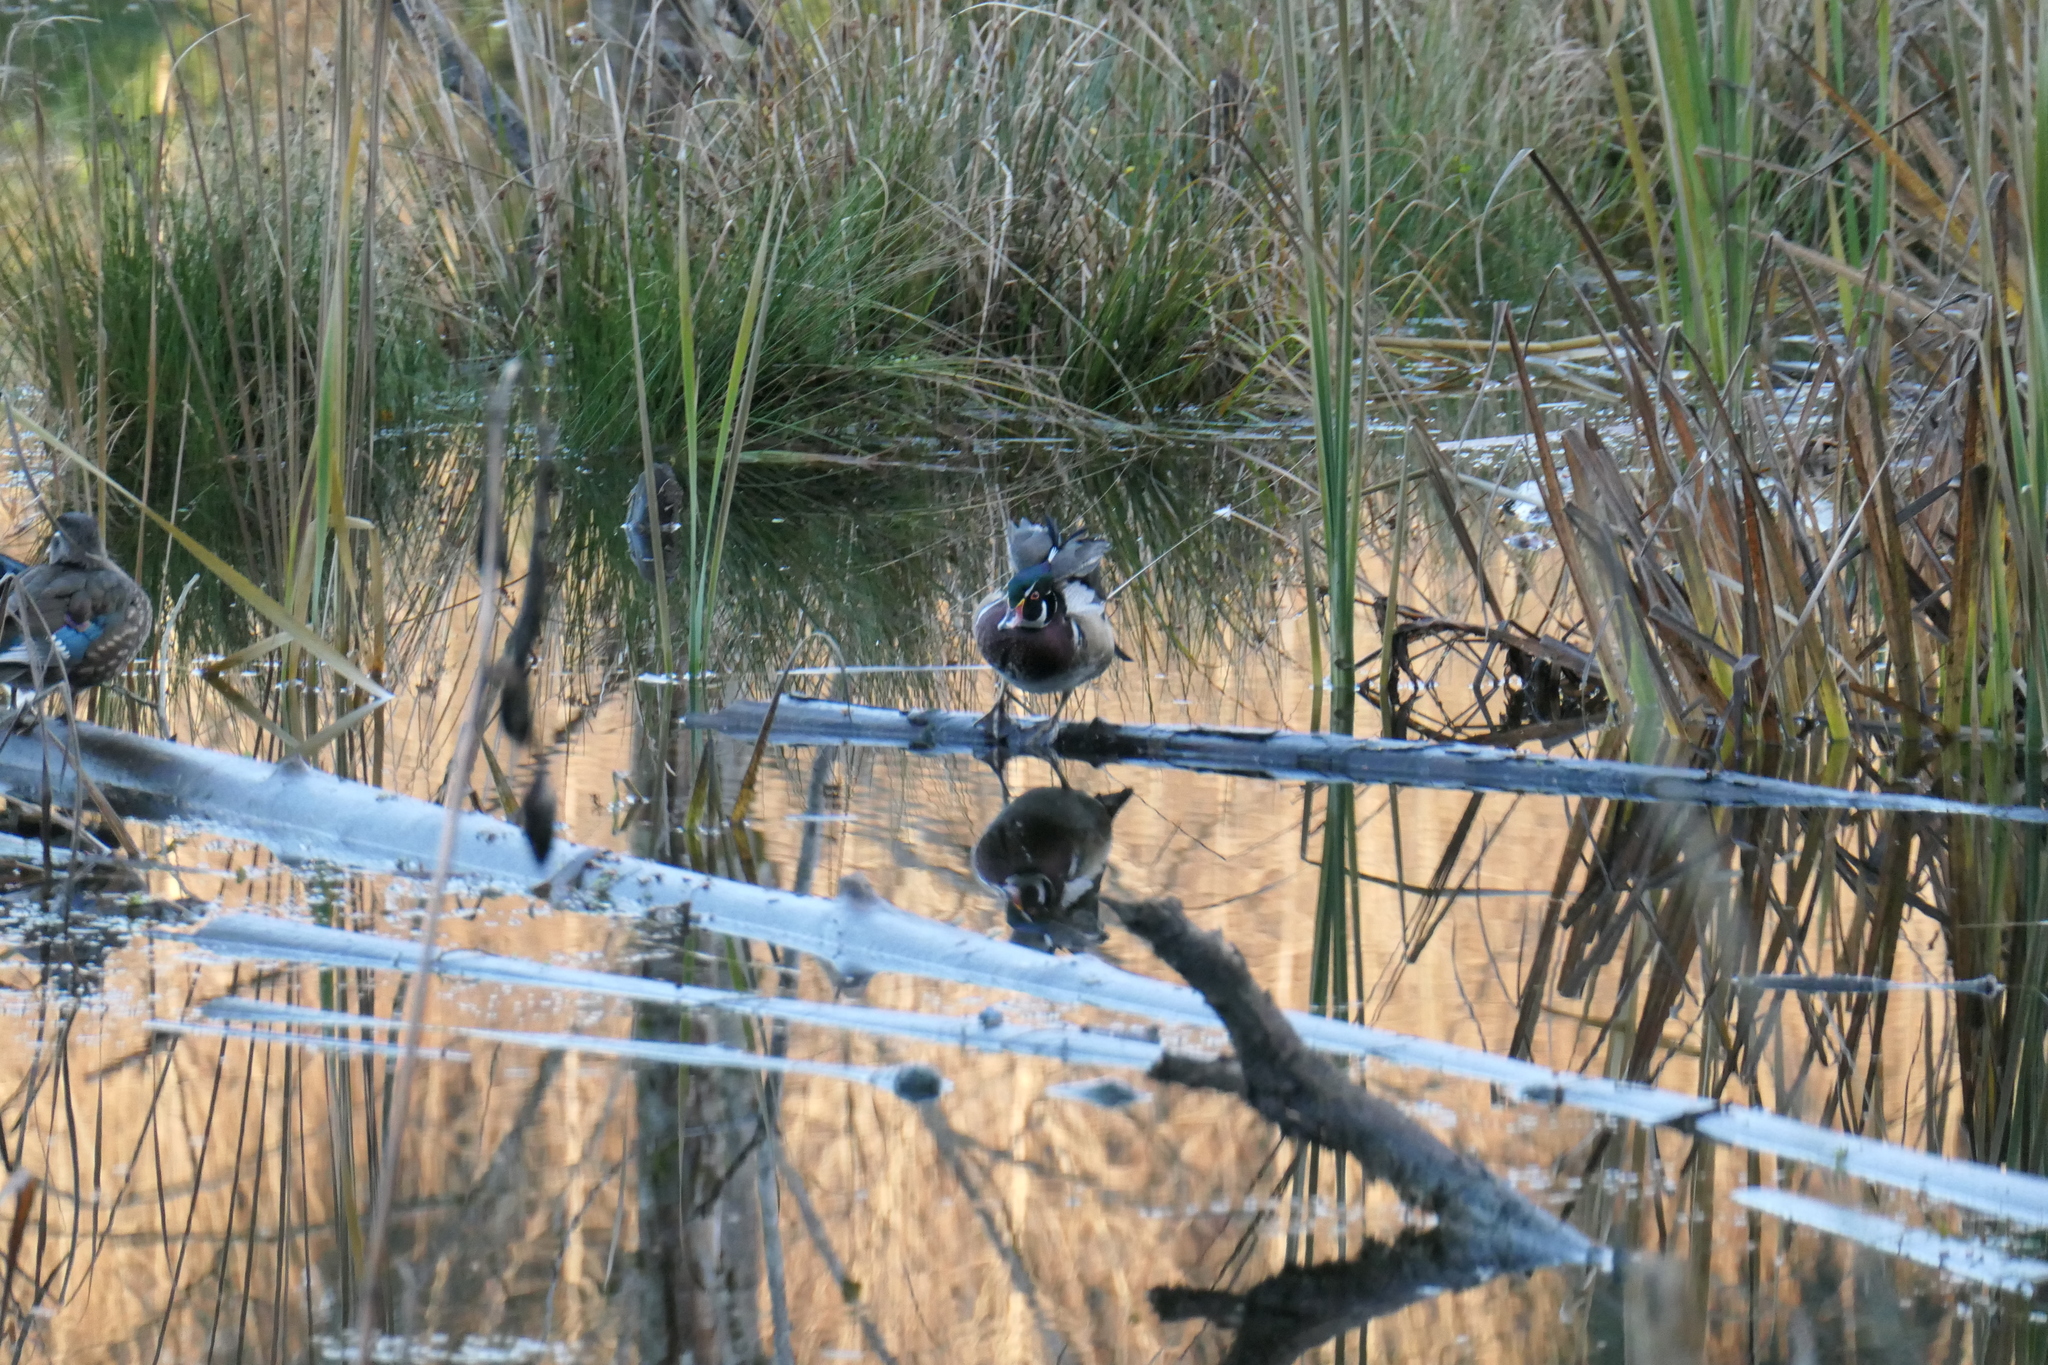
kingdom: Animalia
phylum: Chordata
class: Aves
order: Anseriformes
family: Anatidae
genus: Aix
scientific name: Aix sponsa
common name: Wood duck
